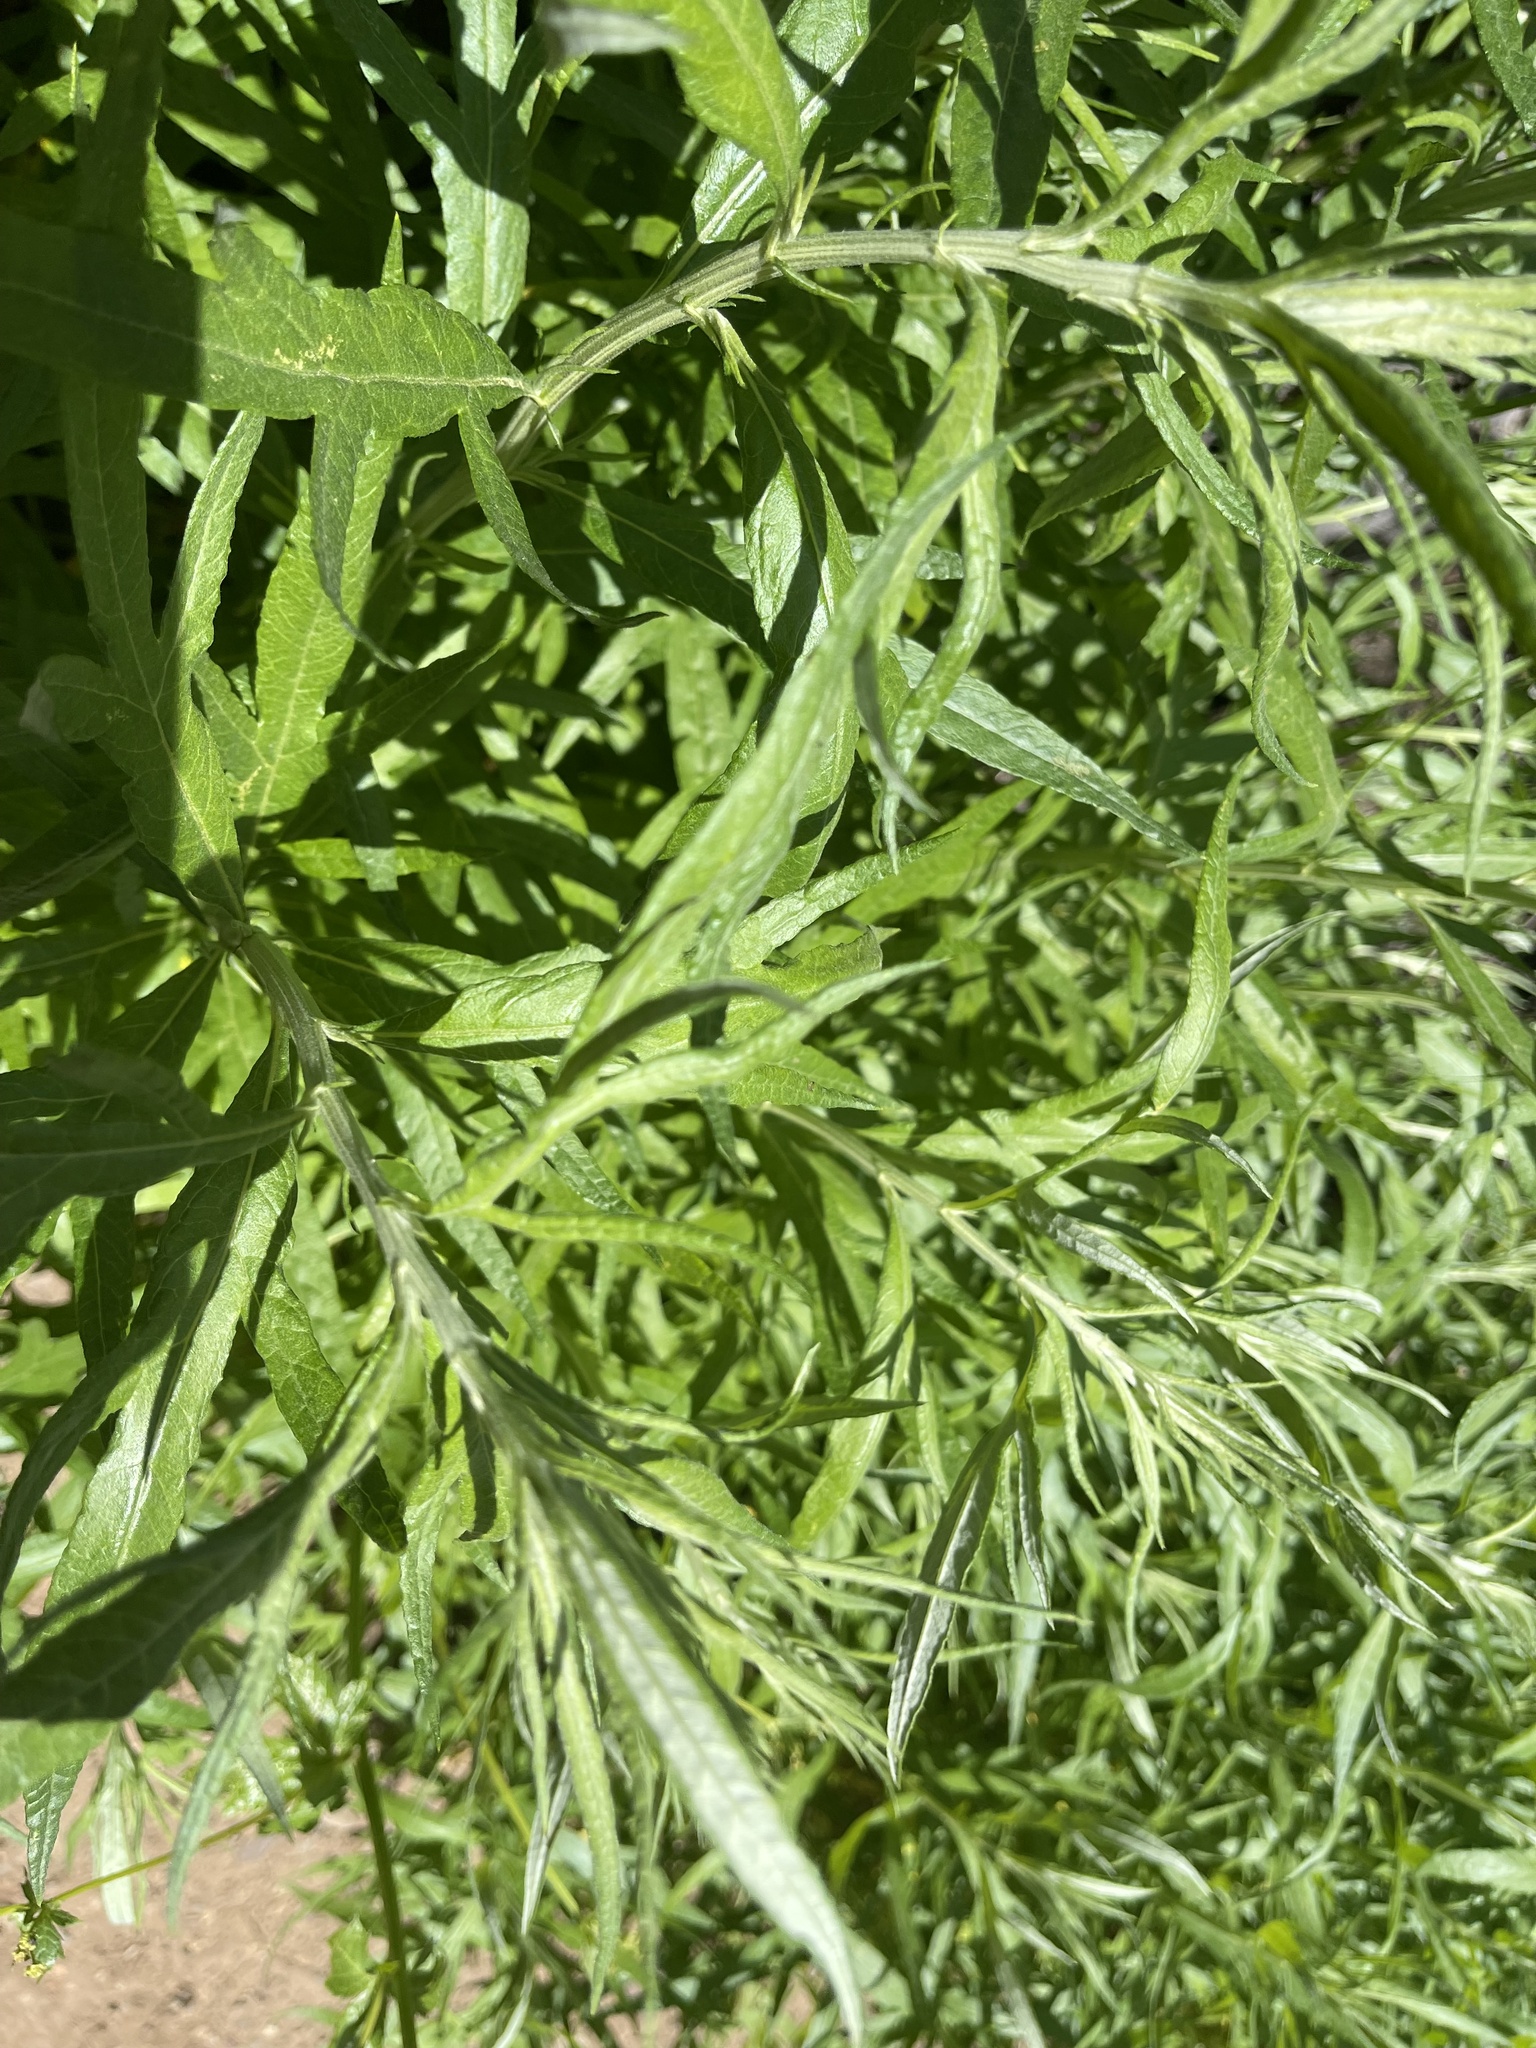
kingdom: Plantae
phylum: Tracheophyta
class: Magnoliopsida
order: Asterales
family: Asteraceae
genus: Artemisia
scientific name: Artemisia douglasiana
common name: Northwest mugwort
